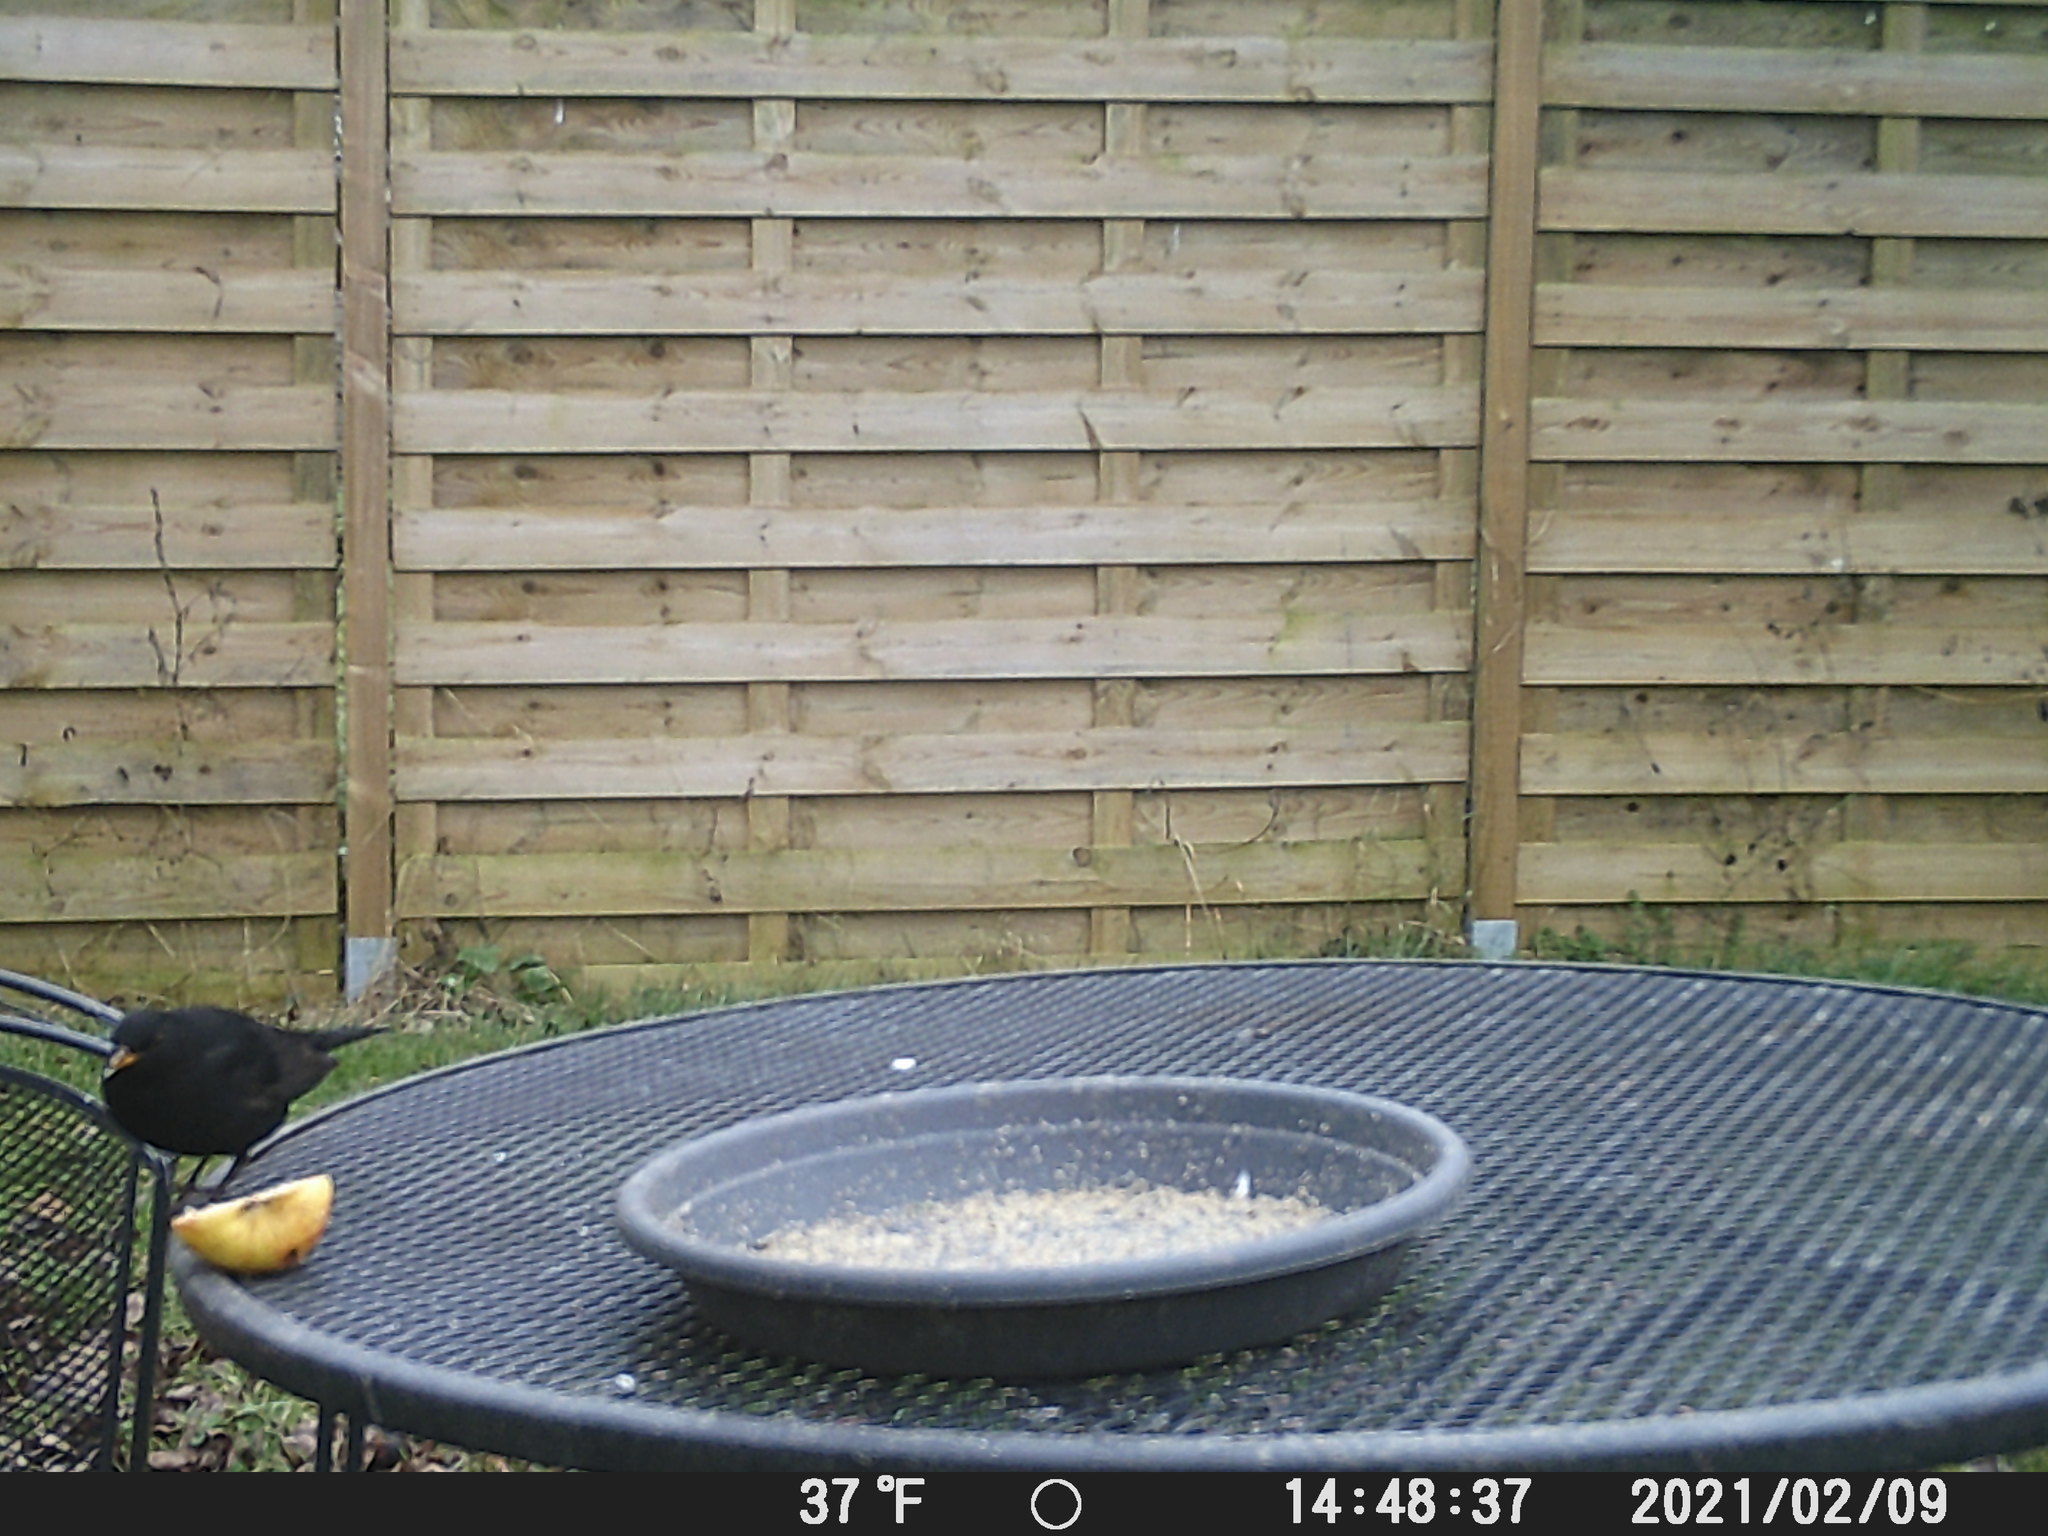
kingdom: Animalia
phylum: Chordata
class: Aves
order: Passeriformes
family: Turdidae
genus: Turdus
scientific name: Turdus merula
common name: Common blackbird
